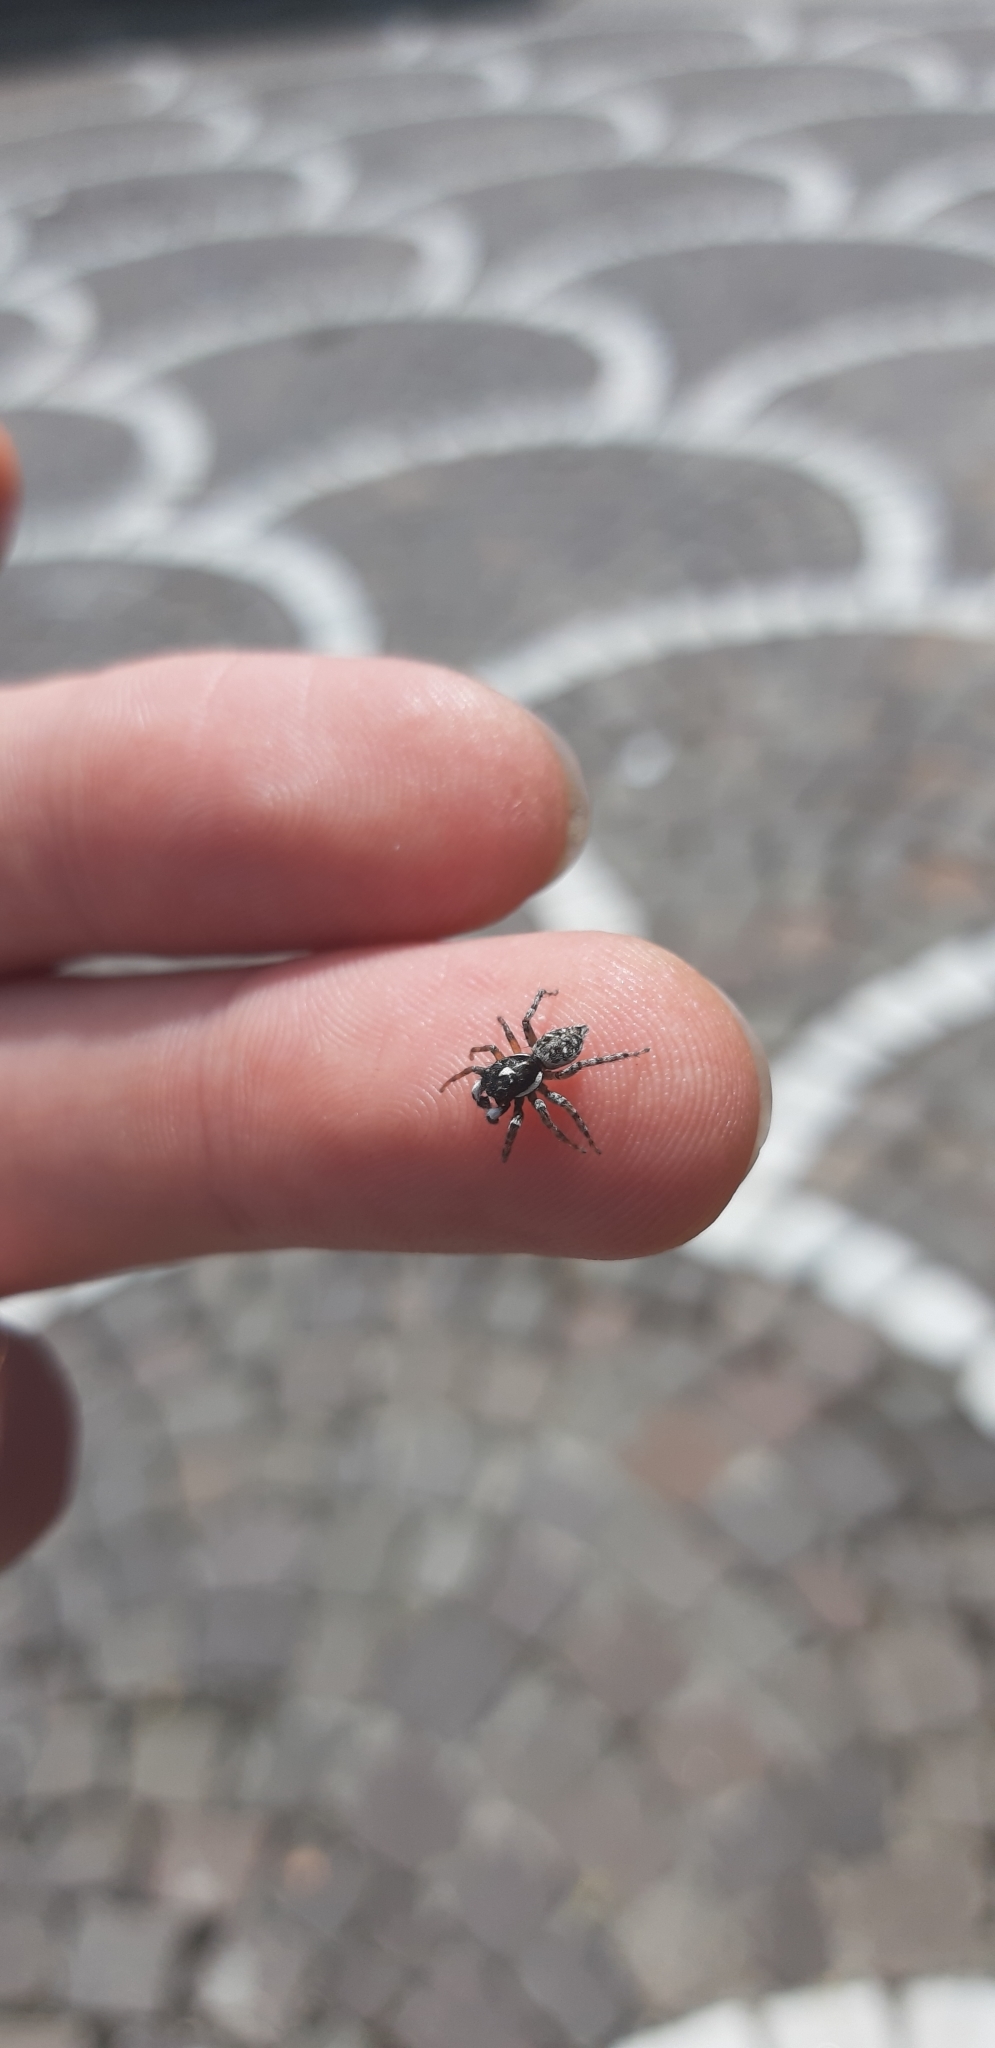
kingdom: Animalia
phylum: Arthropoda
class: Arachnida
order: Araneae
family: Salticidae
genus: Menemerus
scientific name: Menemerus semilimbatus
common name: Jumping spider
